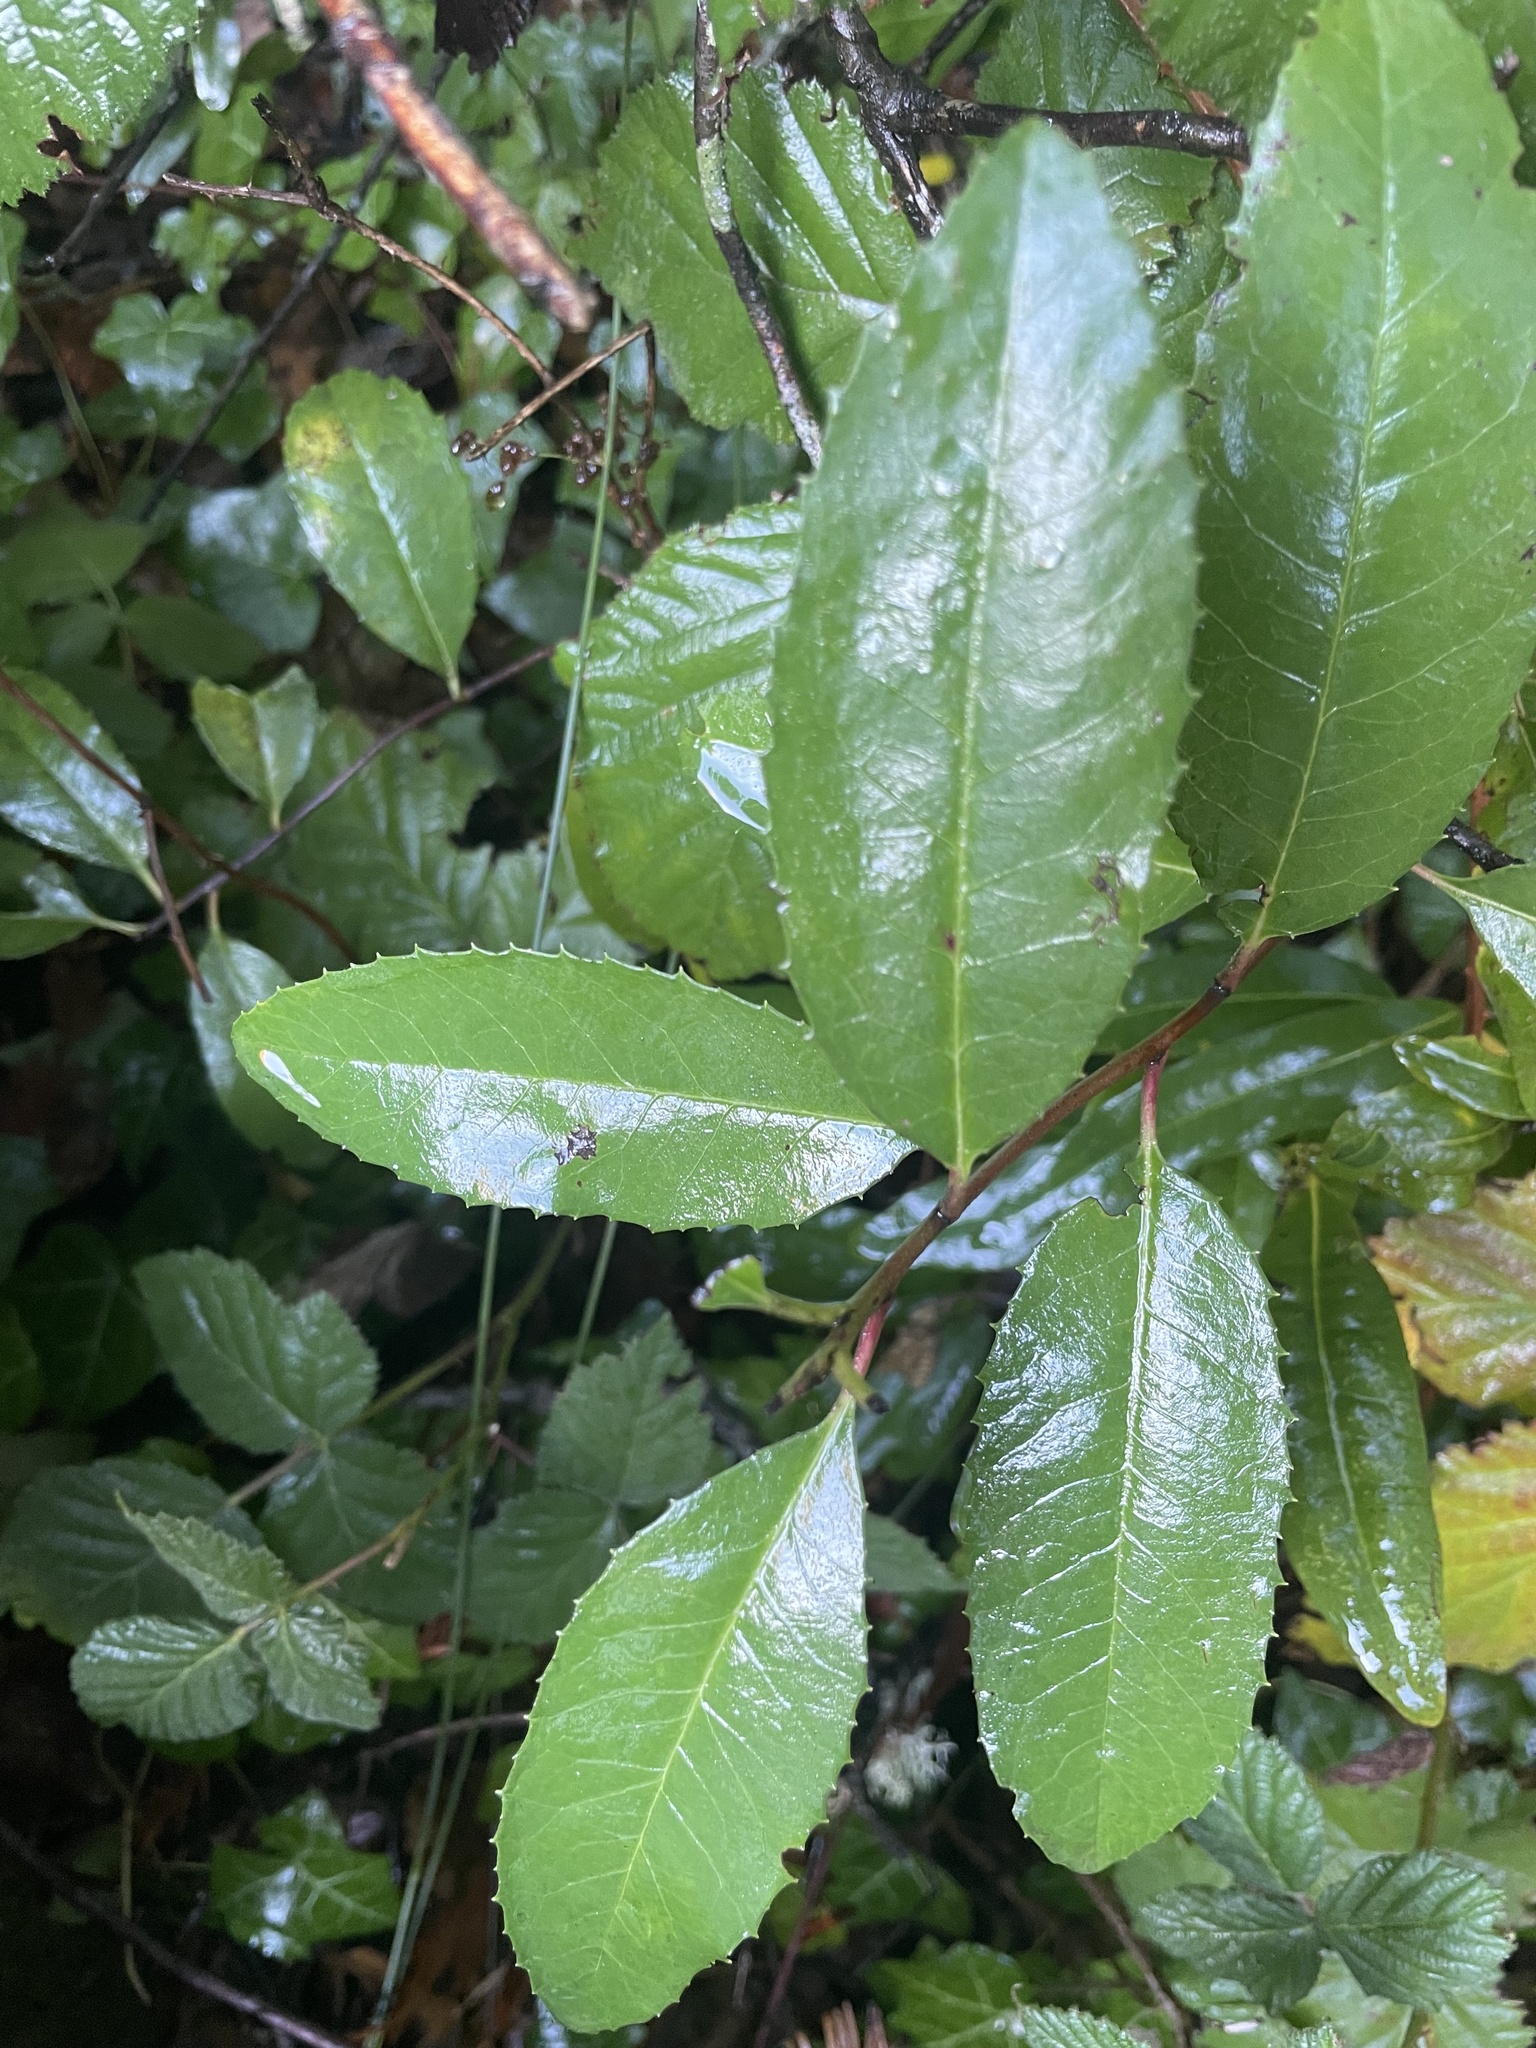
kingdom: Plantae
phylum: Tracheophyta
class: Magnoliopsida
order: Rosales
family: Rosaceae
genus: Heteromeles
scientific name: Heteromeles arbutifolia
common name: California-holly
